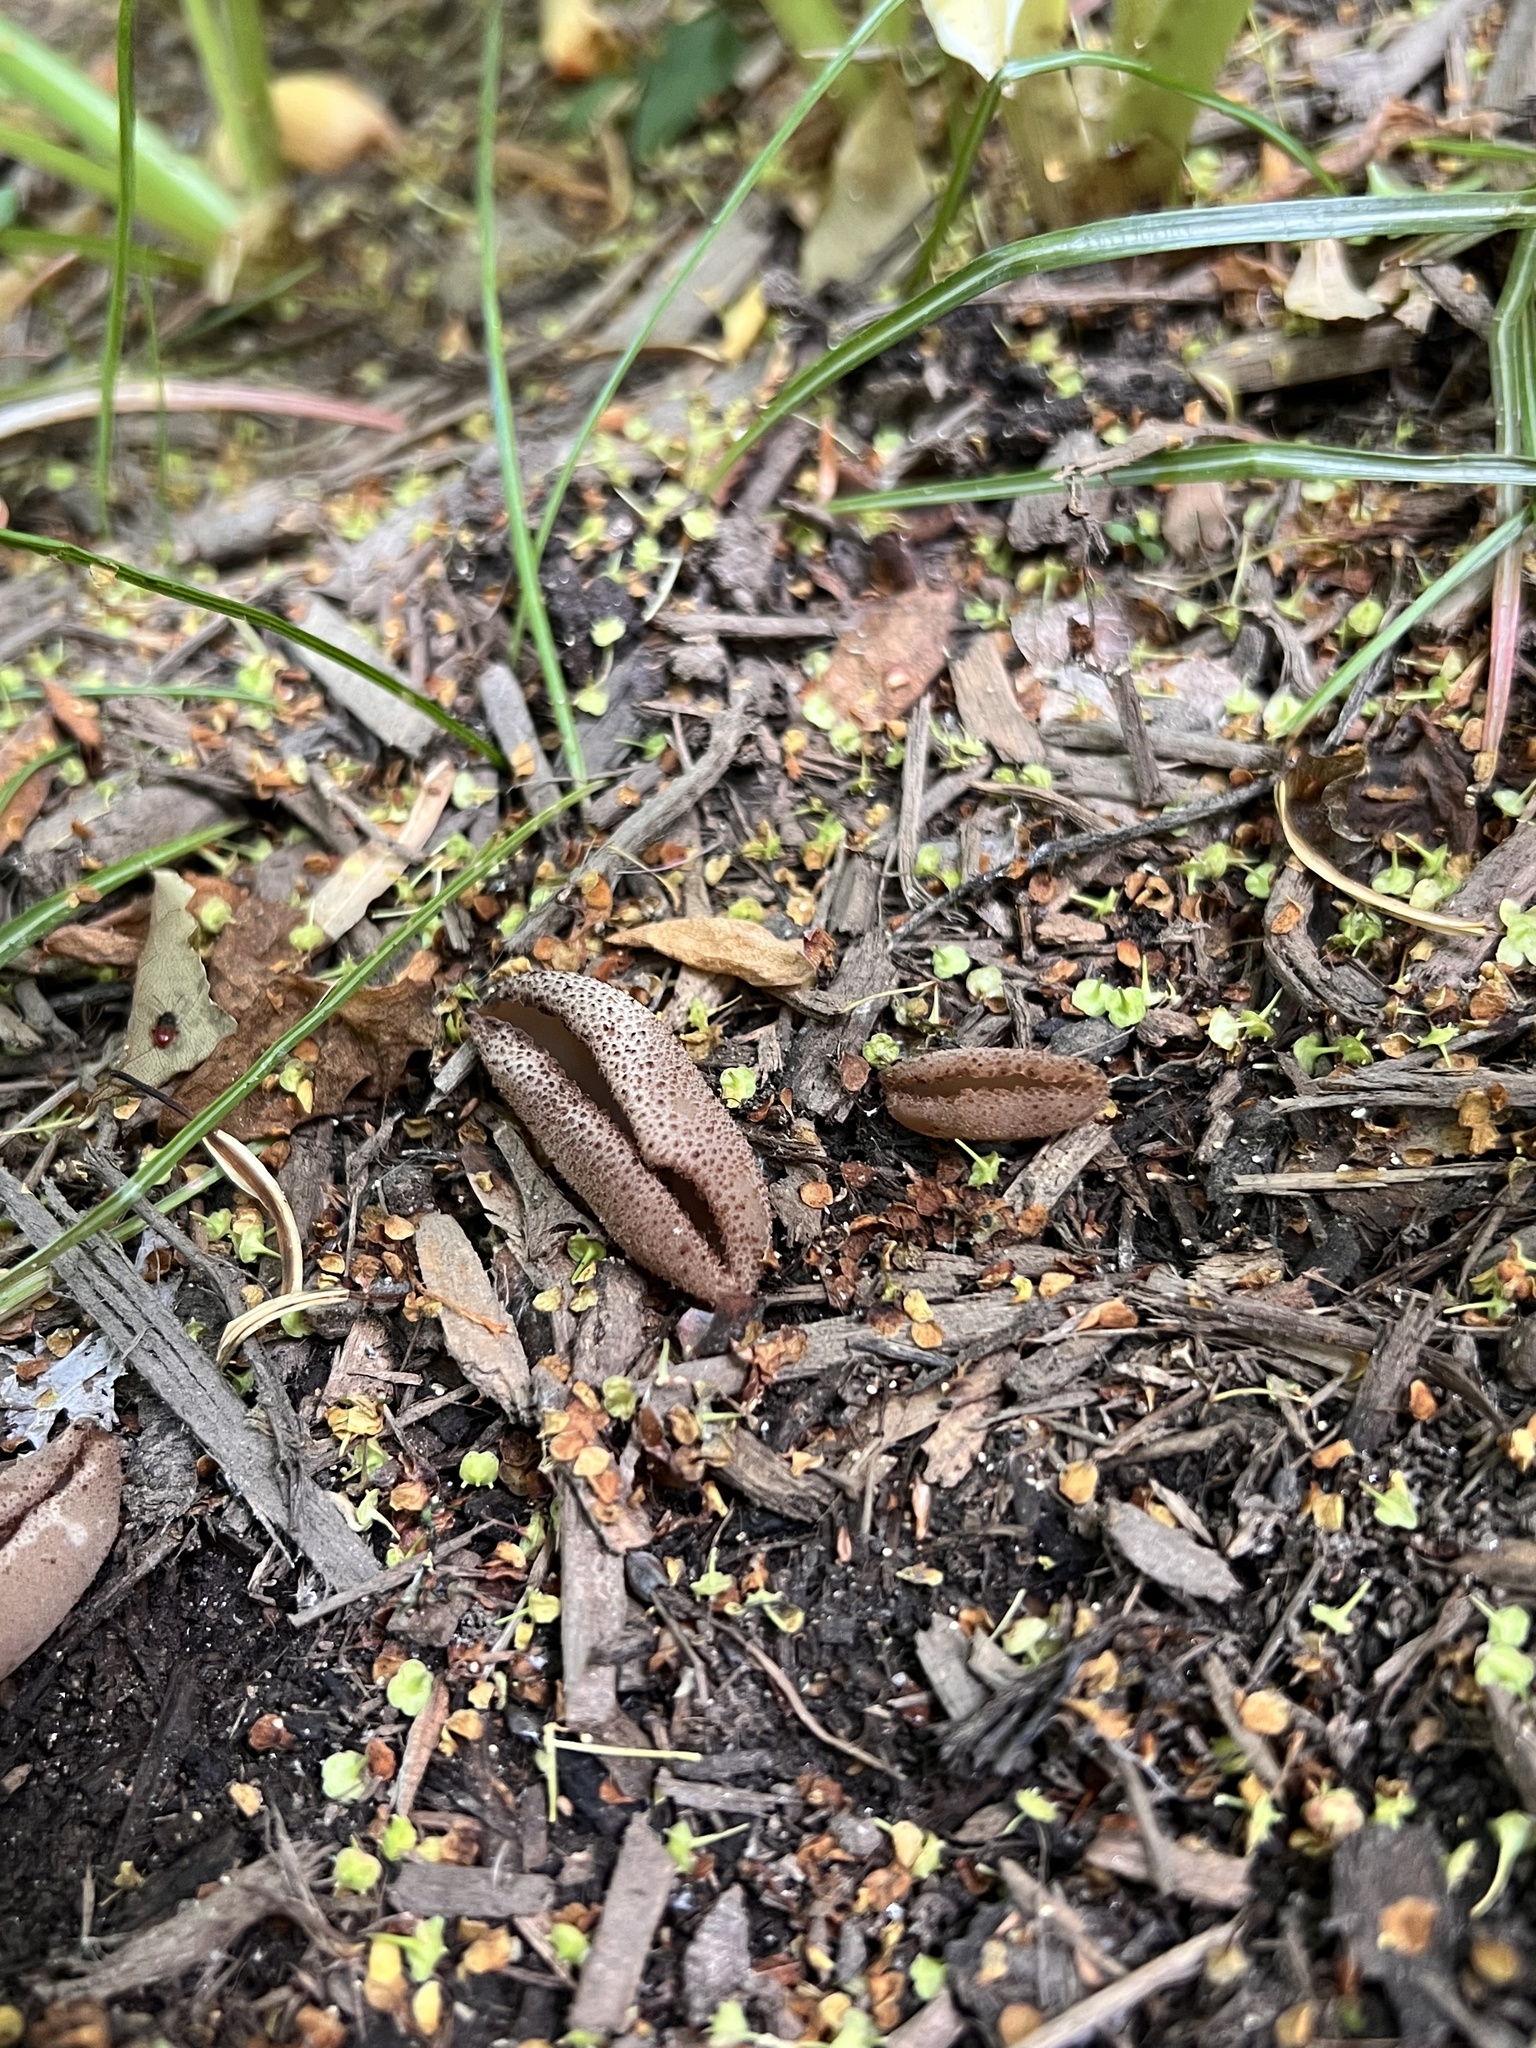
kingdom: Fungi
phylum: Ascomycota
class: Pezizomycetes
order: Pezizales
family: Pezizaceae
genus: Phylloscypha
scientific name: Phylloscypha phyllogena
